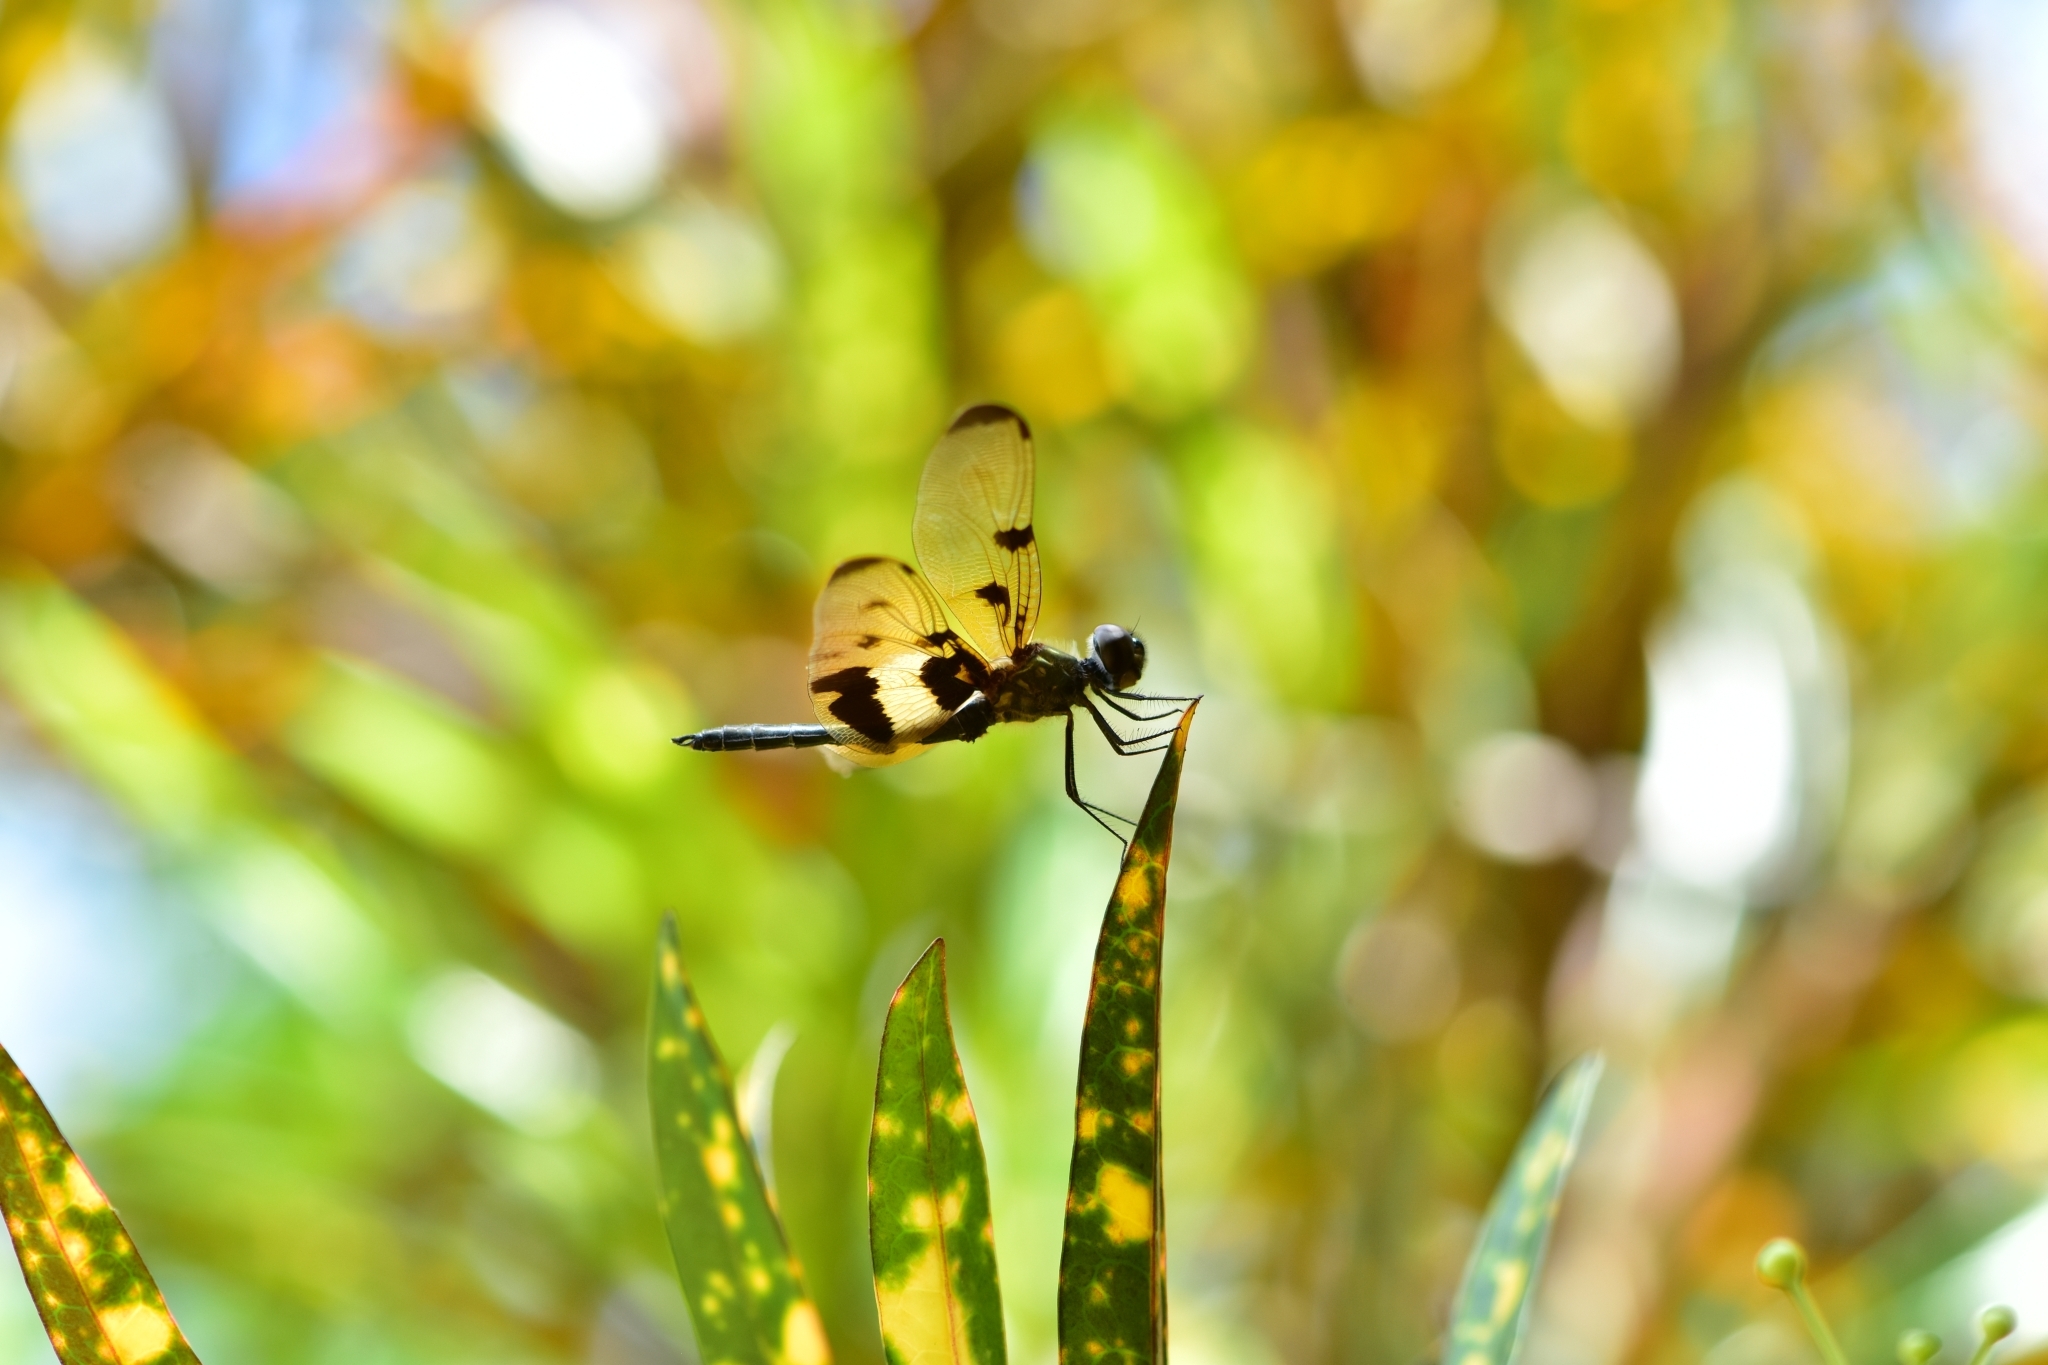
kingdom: Animalia
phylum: Arthropoda
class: Insecta
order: Odonata
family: Libellulidae
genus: Rhyothemis
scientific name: Rhyothemis variegata
